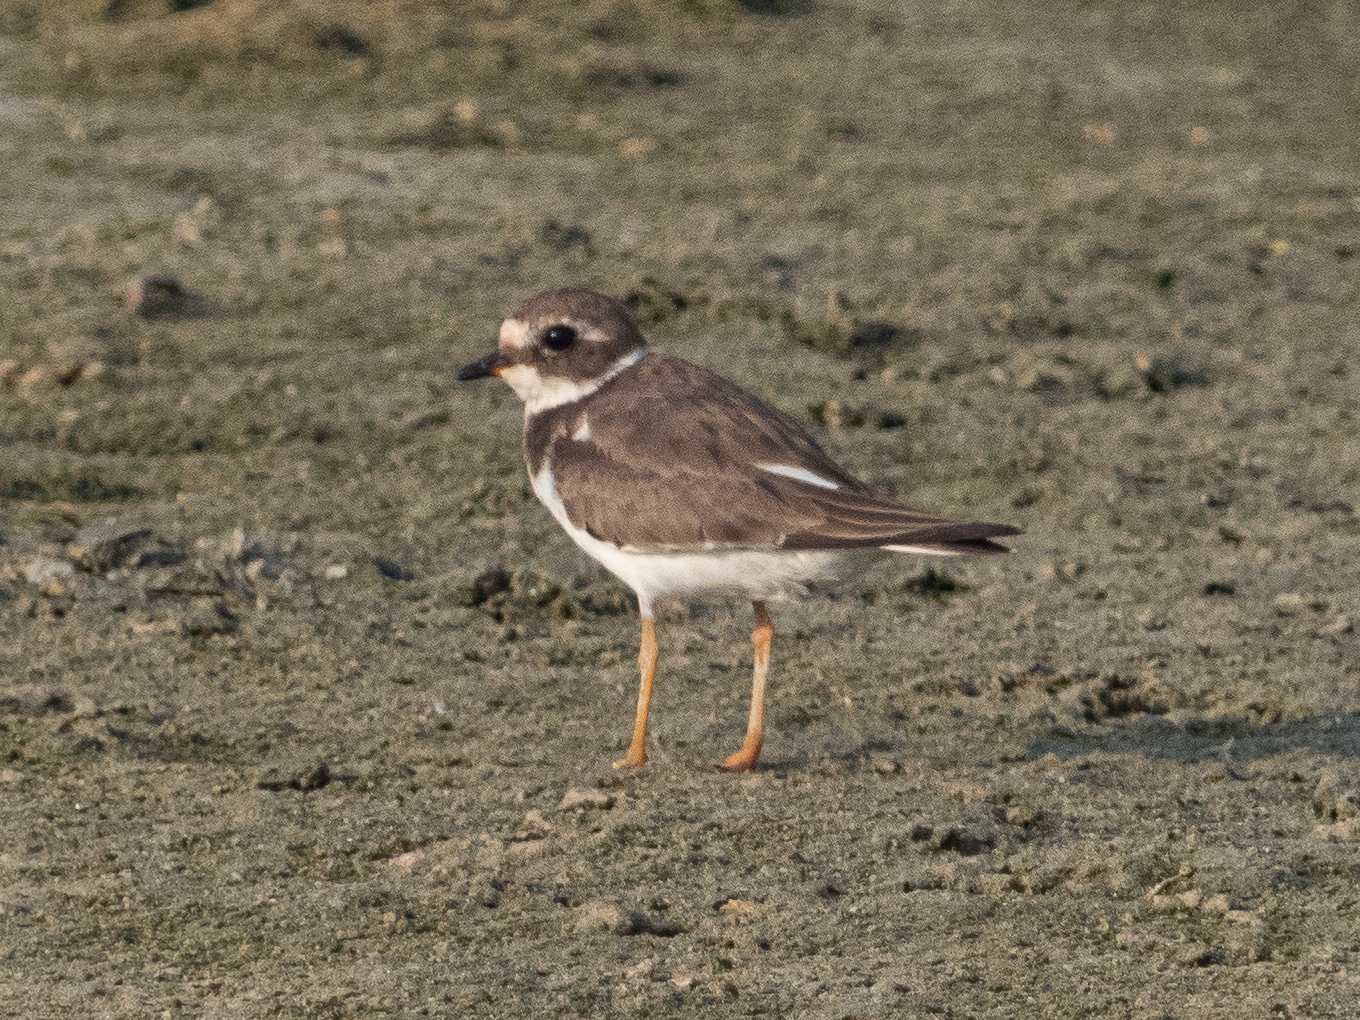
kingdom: Animalia
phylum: Chordata
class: Aves
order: Charadriiformes
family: Charadriidae
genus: Charadrius
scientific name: Charadrius hiaticula
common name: Common ringed plover
